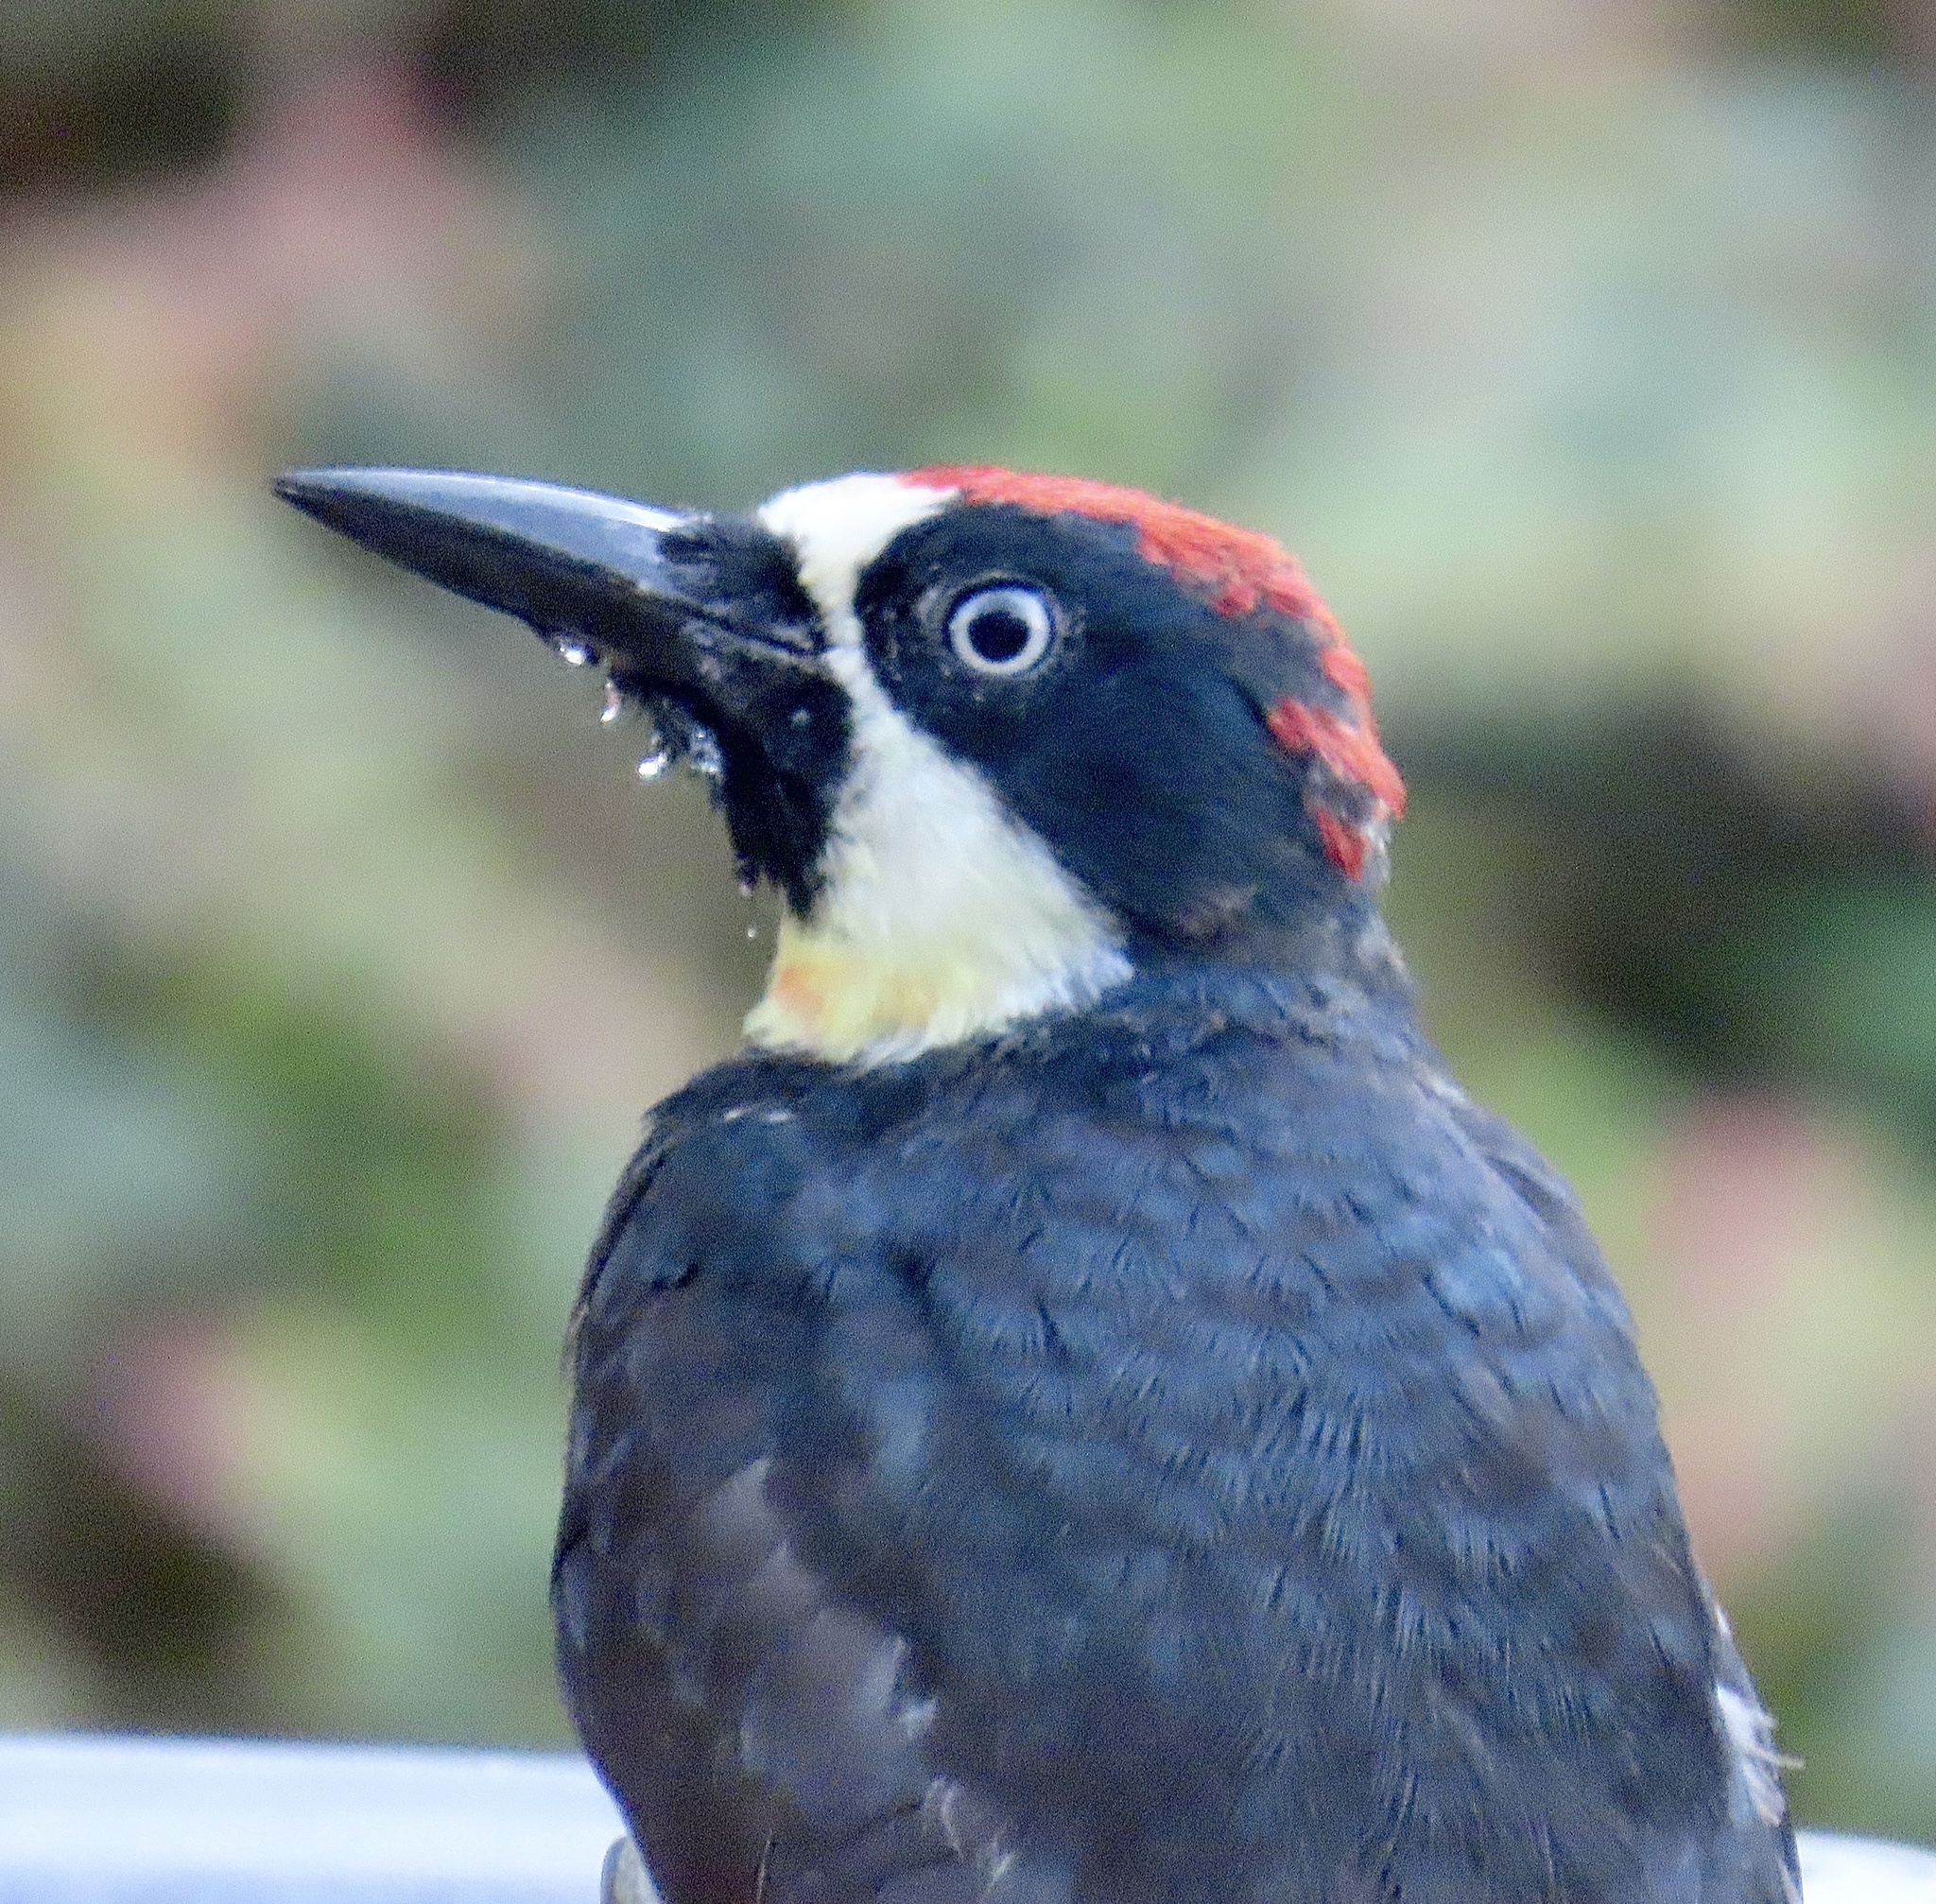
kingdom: Animalia
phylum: Chordata
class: Aves
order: Piciformes
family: Picidae
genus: Melanerpes
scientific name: Melanerpes formicivorus
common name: Acorn woodpecker
